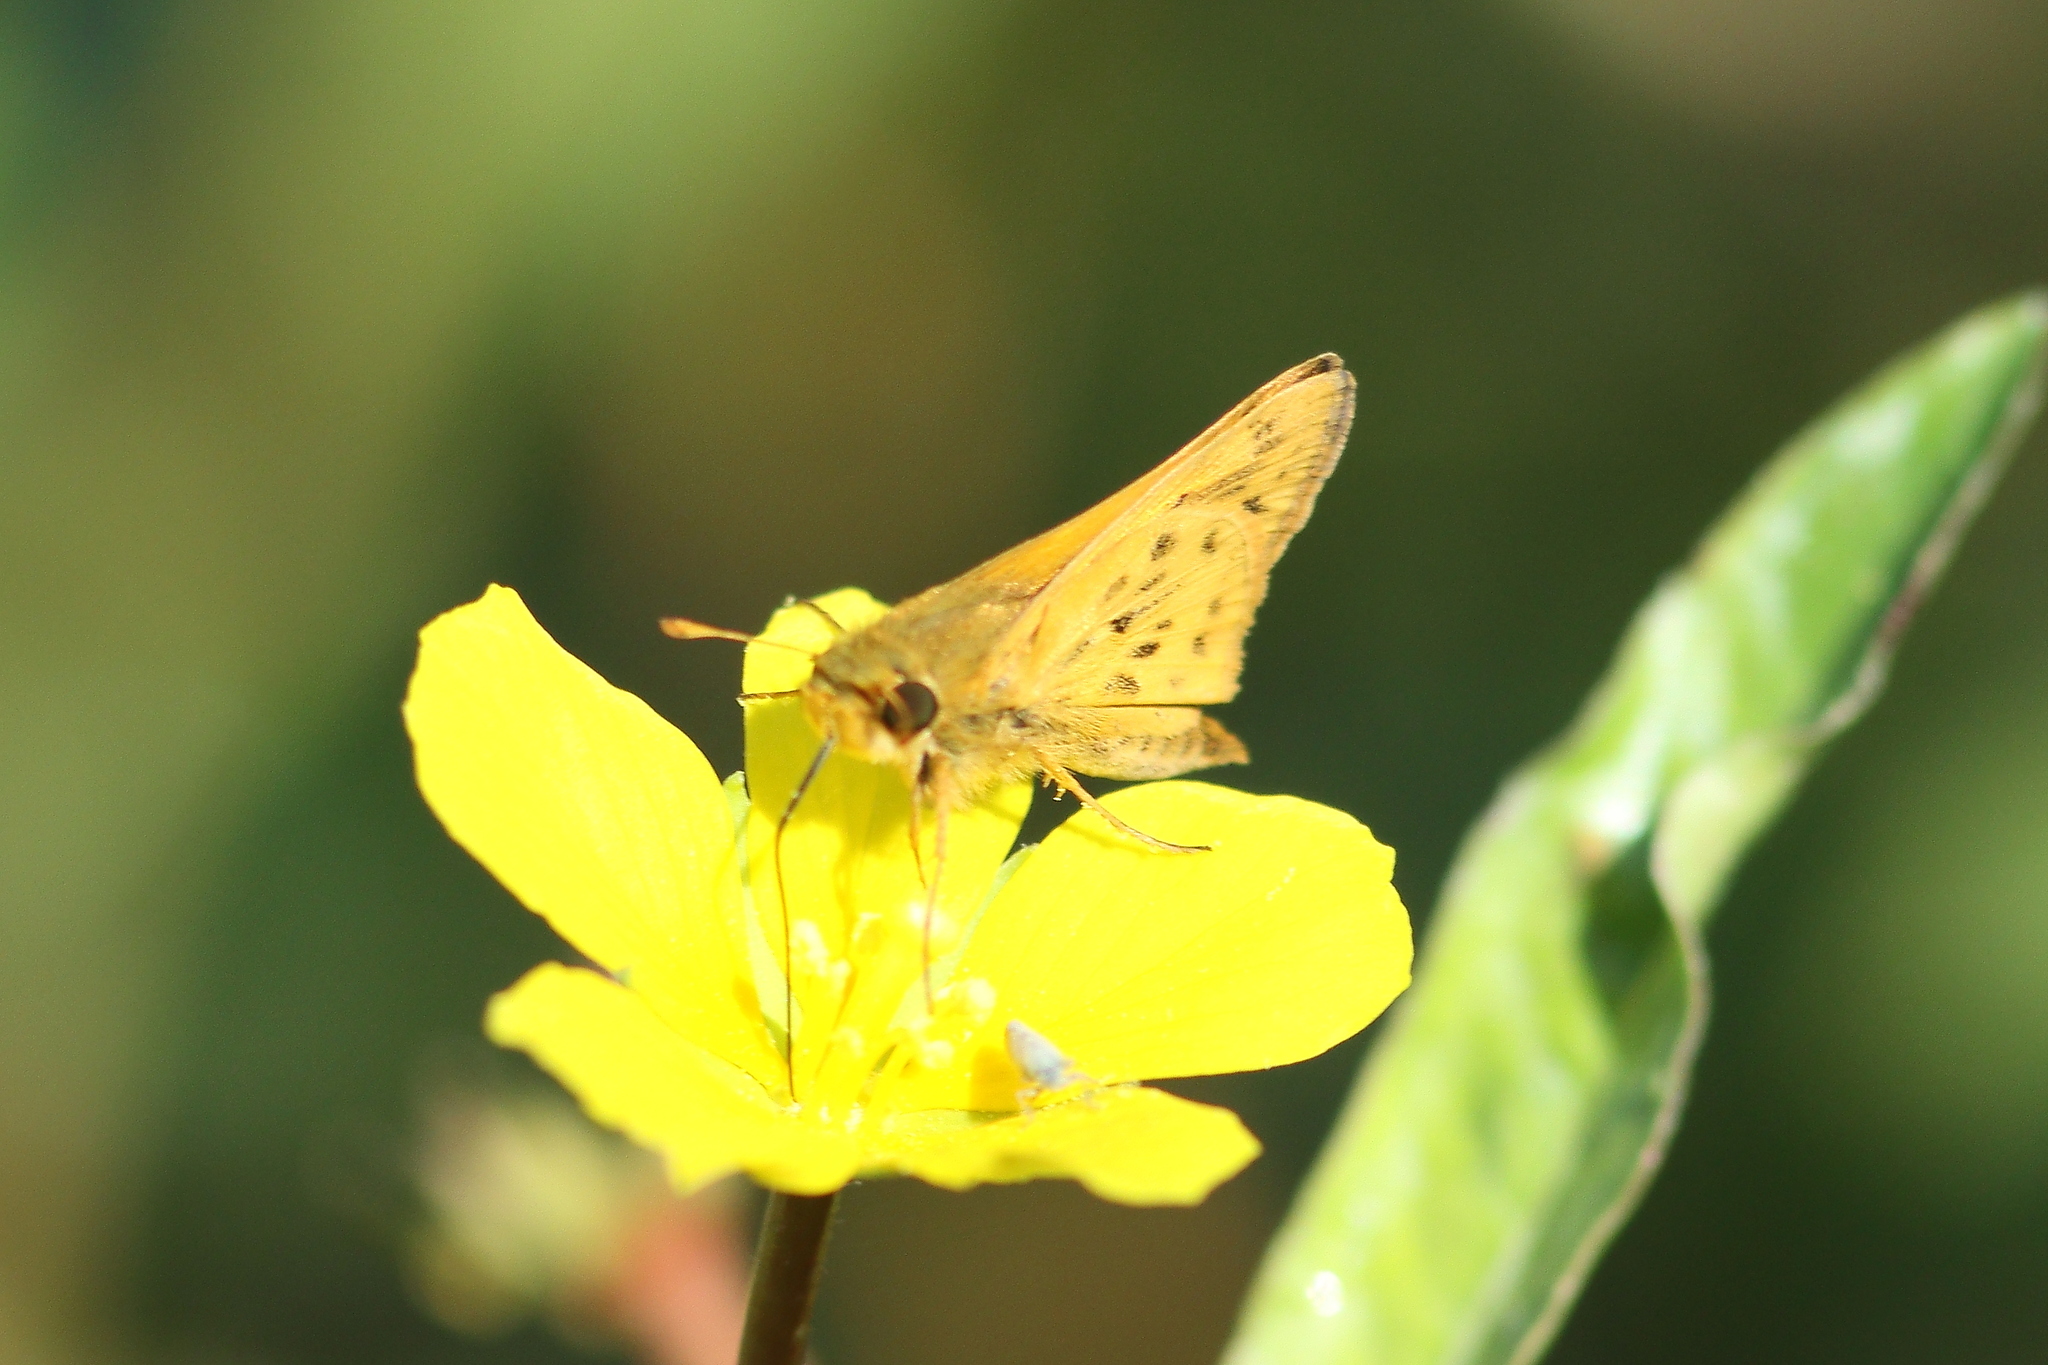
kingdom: Animalia
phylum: Arthropoda
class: Insecta
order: Lepidoptera
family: Hesperiidae
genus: Hylephila
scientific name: Hylephila phyleus
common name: Fiery skipper
